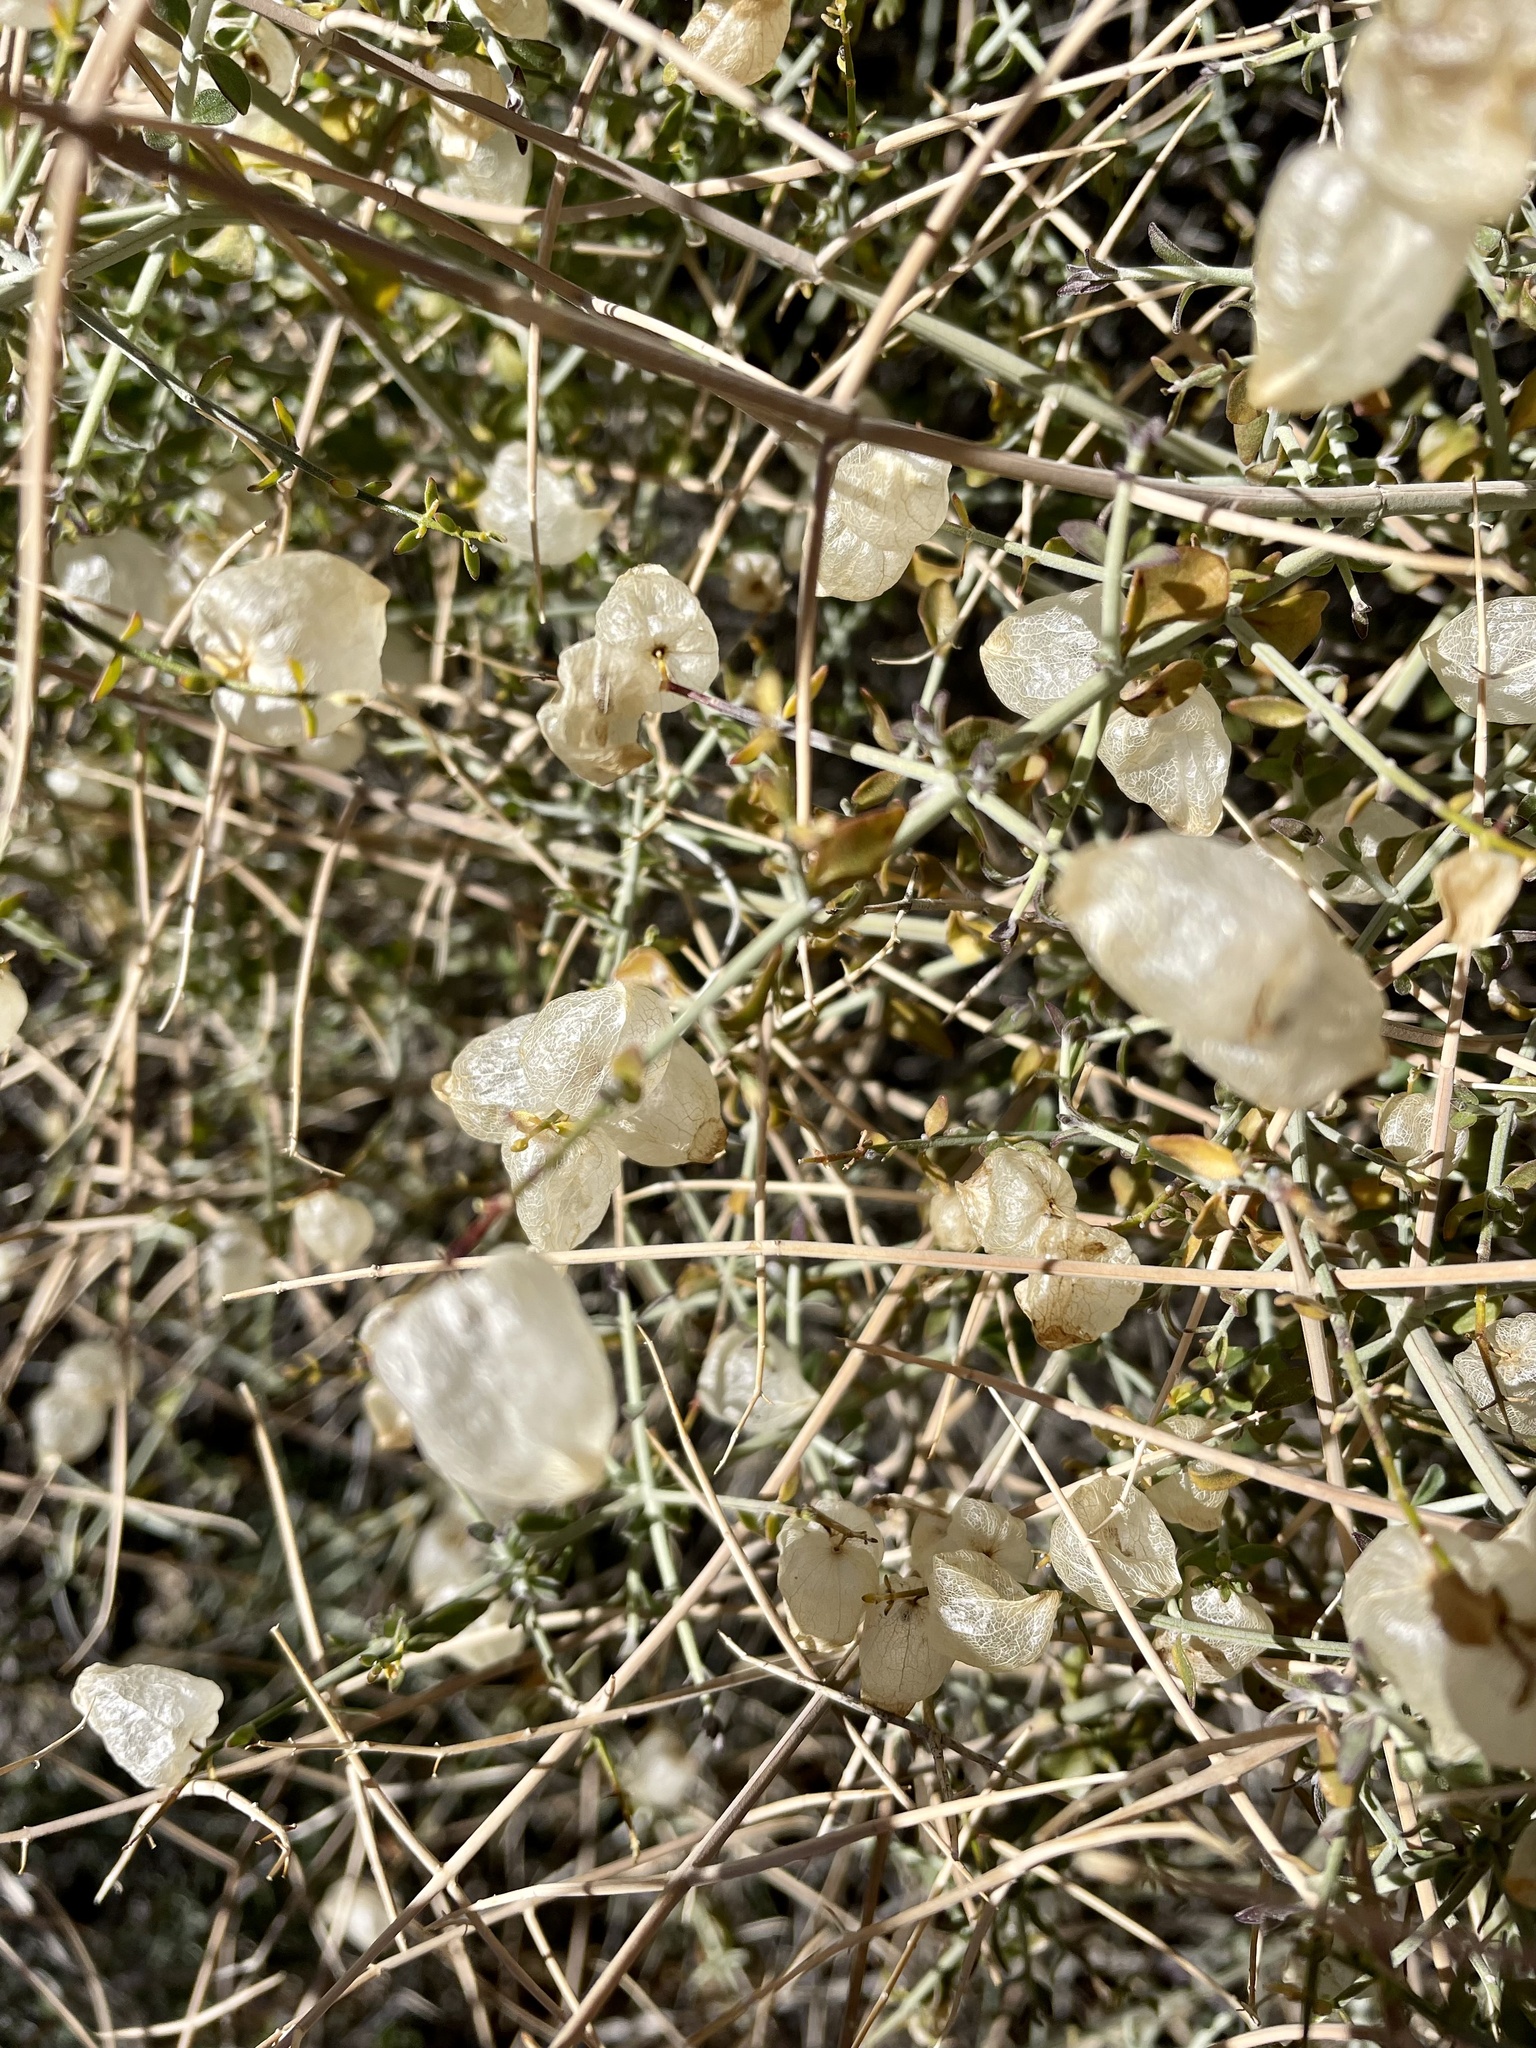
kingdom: Plantae
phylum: Tracheophyta
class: Magnoliopsida
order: Lamiales
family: Lamiaceae
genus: Scutellaria
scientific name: Scutellaria mexicana
